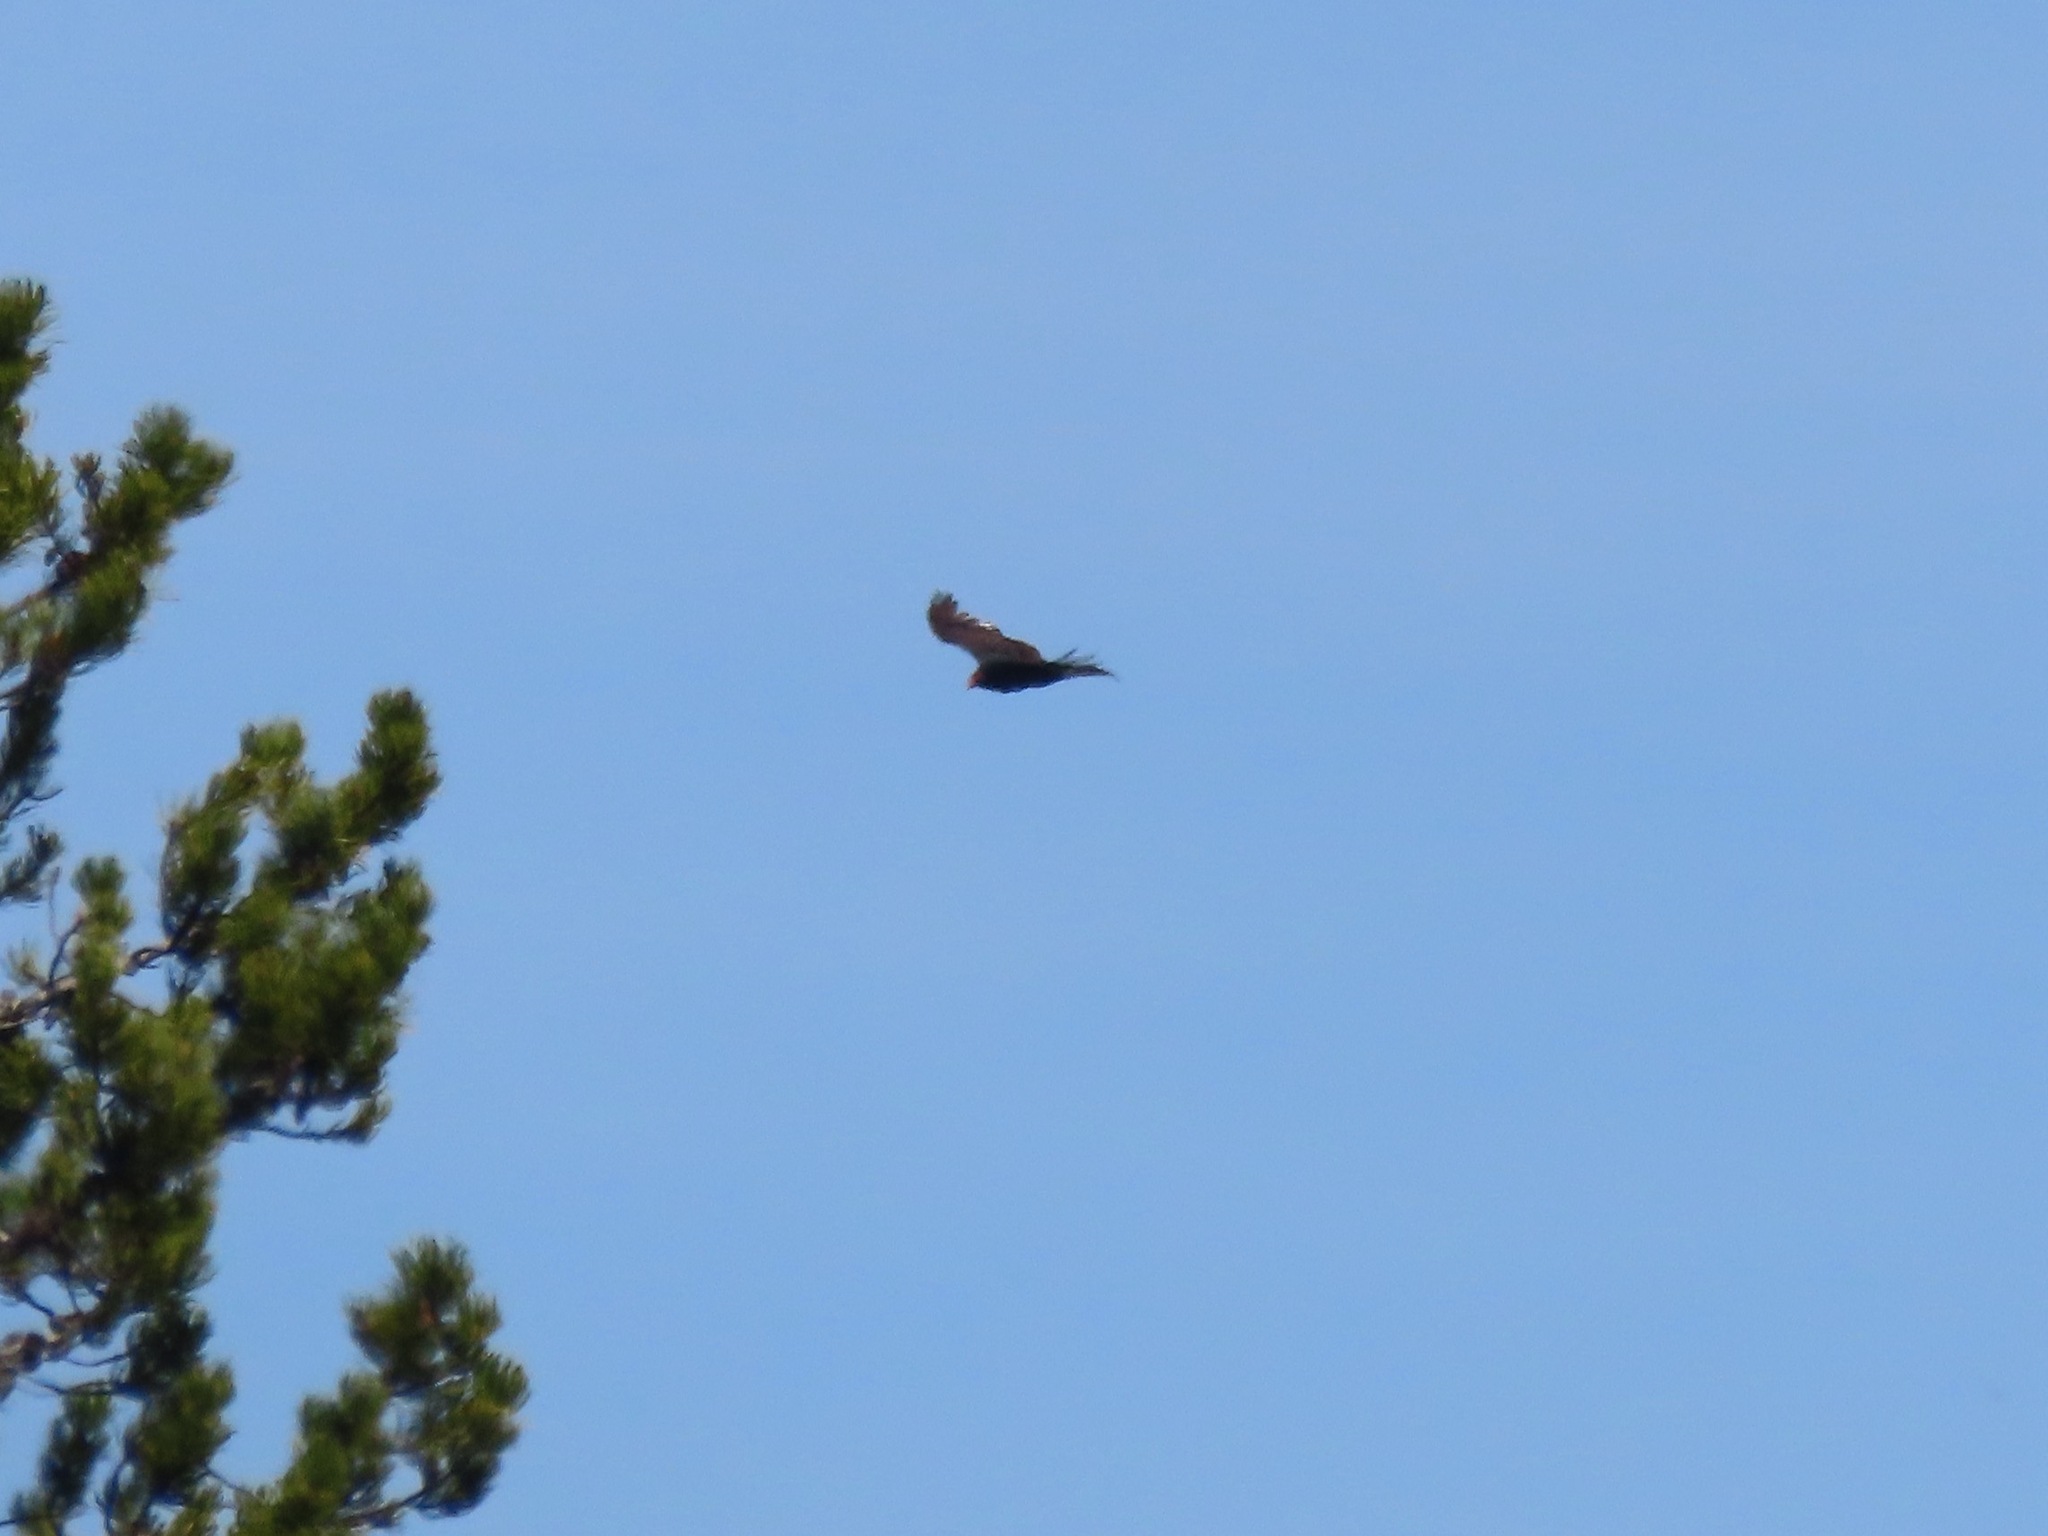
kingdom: Animalia
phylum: Chordata
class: Aves
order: Accipitriformes
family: Cathartidae
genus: Cathartes
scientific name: Cathartes aura
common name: Turkey vulture
